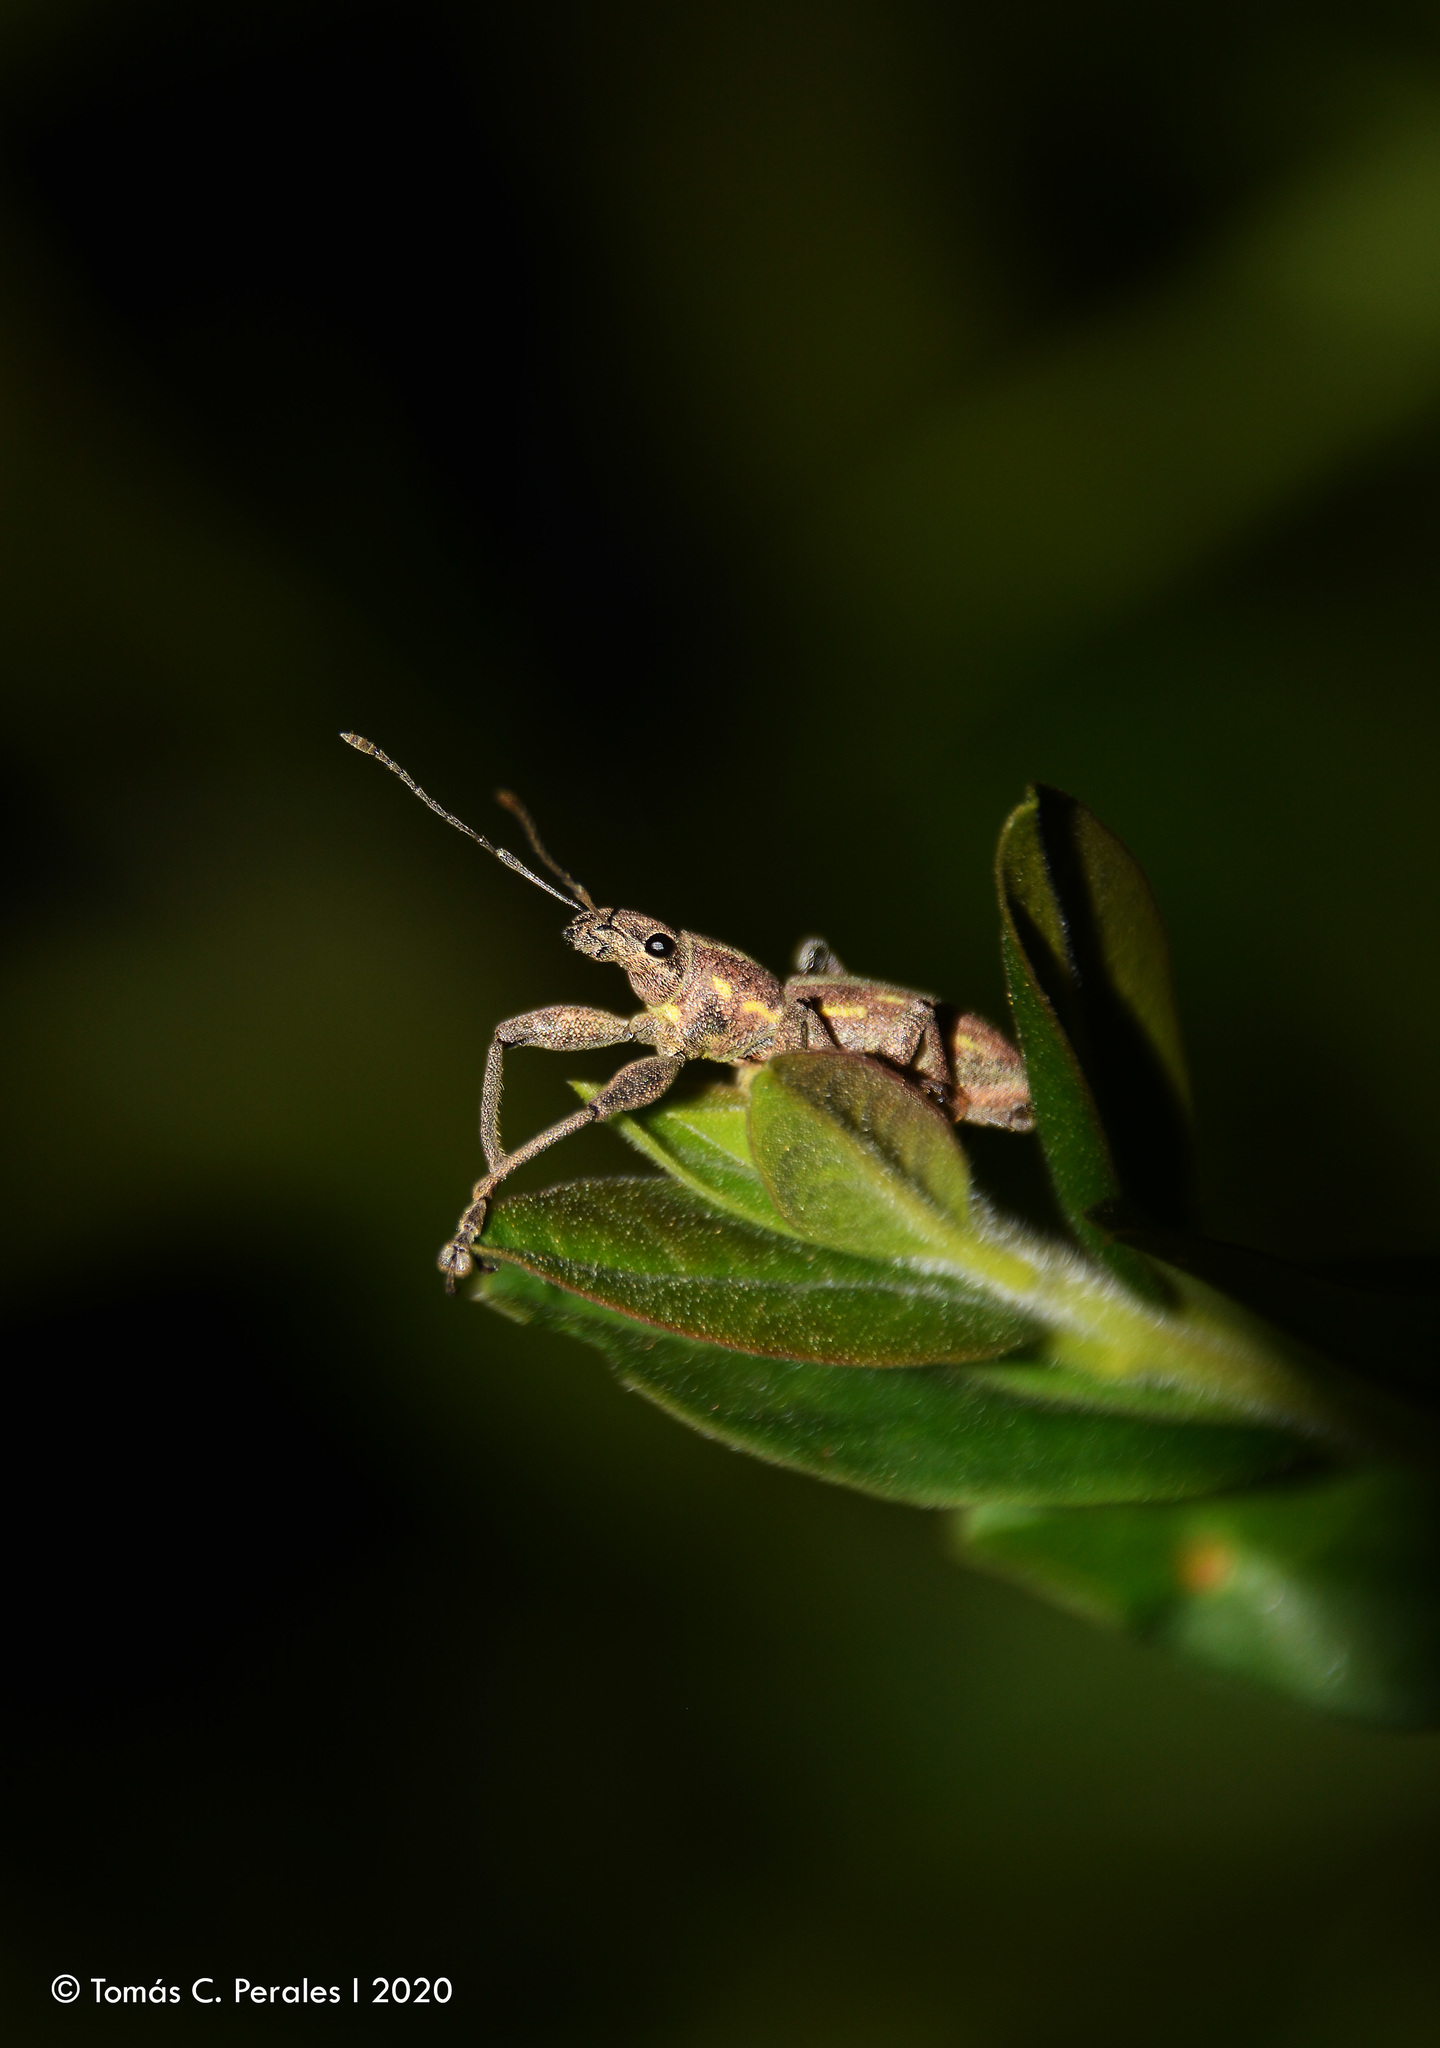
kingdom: Animalia
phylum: Arthropoda
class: Insecta
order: Coleoptera
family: Curculionidae
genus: Naupactus
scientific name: Naupactus xanthographus
